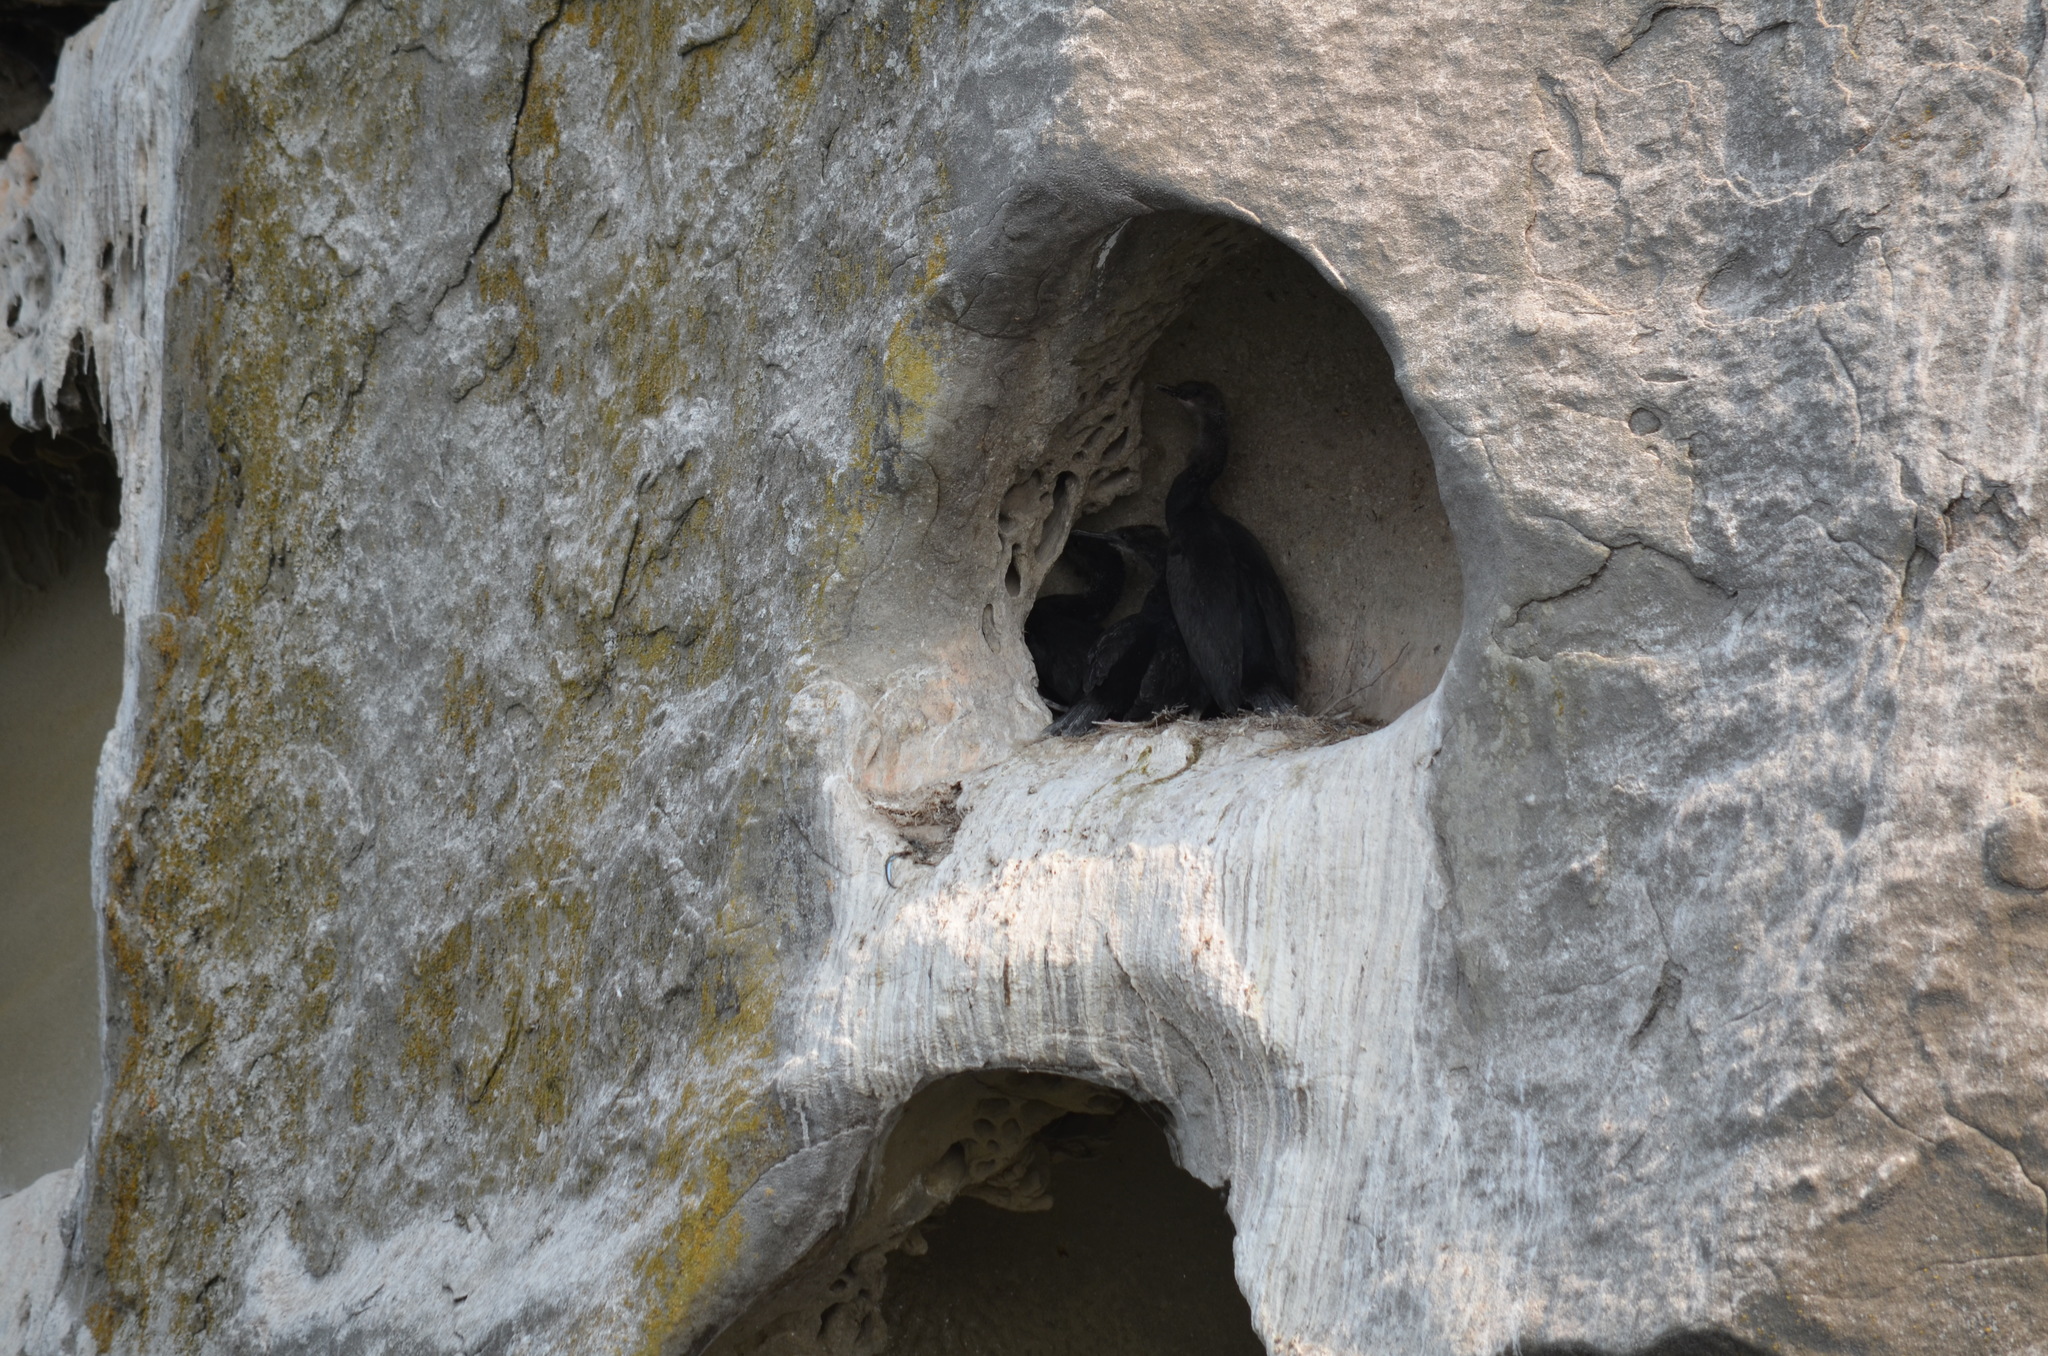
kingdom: Animalia
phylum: Chordata
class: Aves
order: Suliformes
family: Phalacrocoracidae
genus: Phalacrocorax
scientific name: Phalacrocorax pelagicus
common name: Pelagic cormorant
